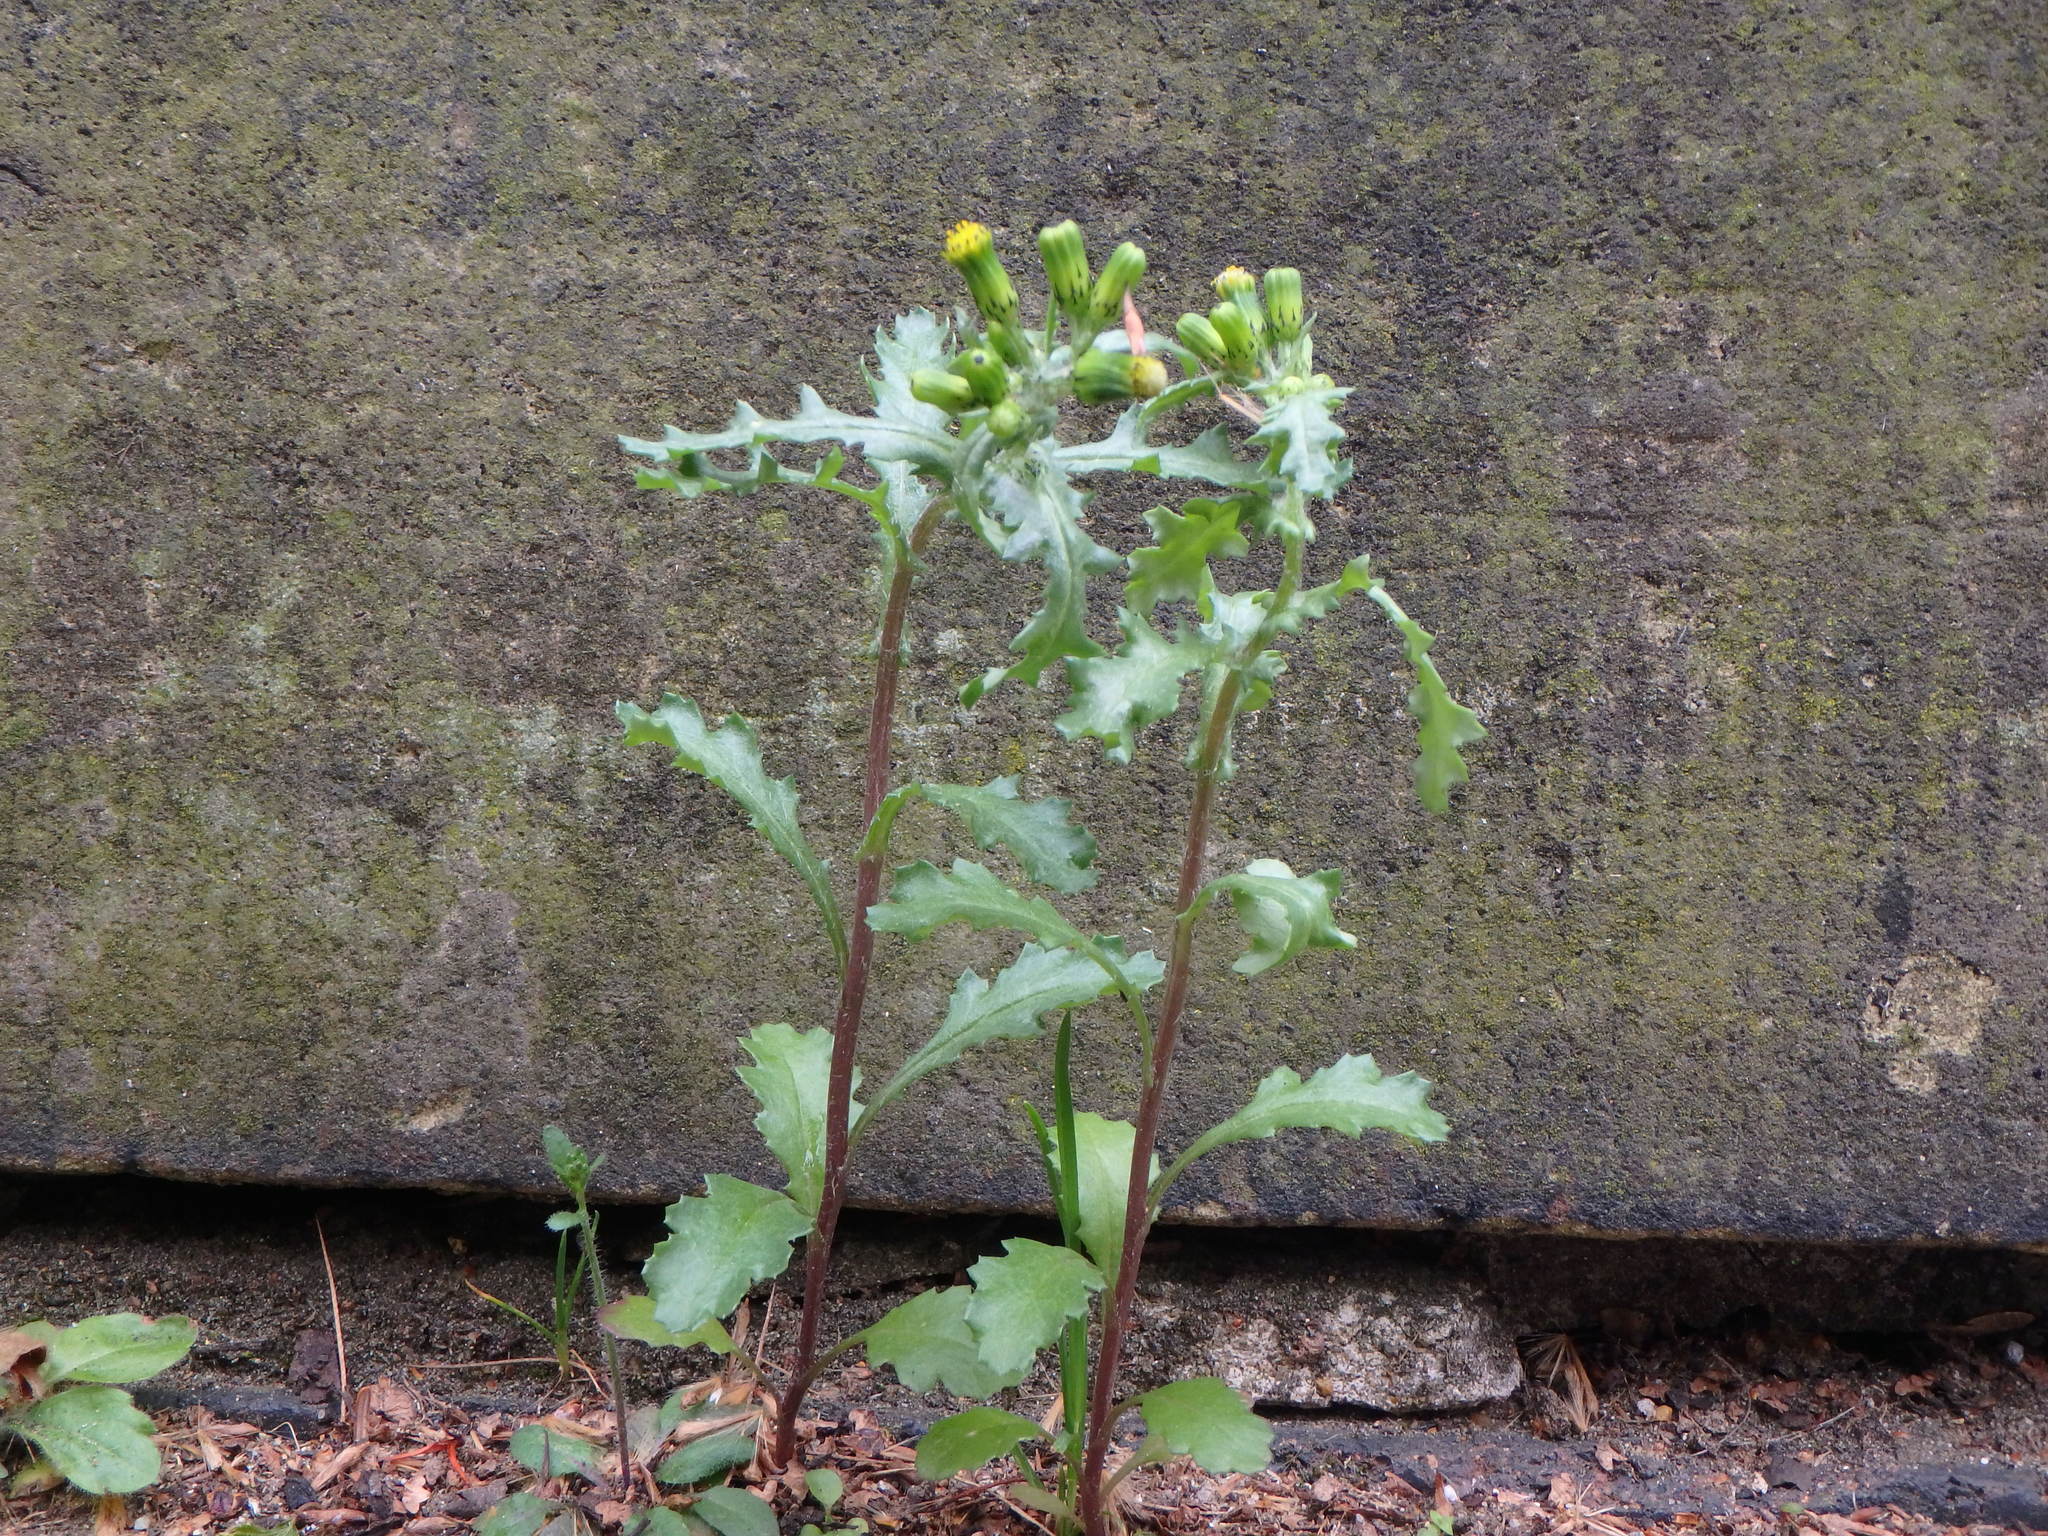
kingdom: Plantae
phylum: Tracheophyta
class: Magnoliopsida
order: Asterales
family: Asteraceae
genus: Senecio
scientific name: Senecio vulgaris
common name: Old-man-in-the-spring
